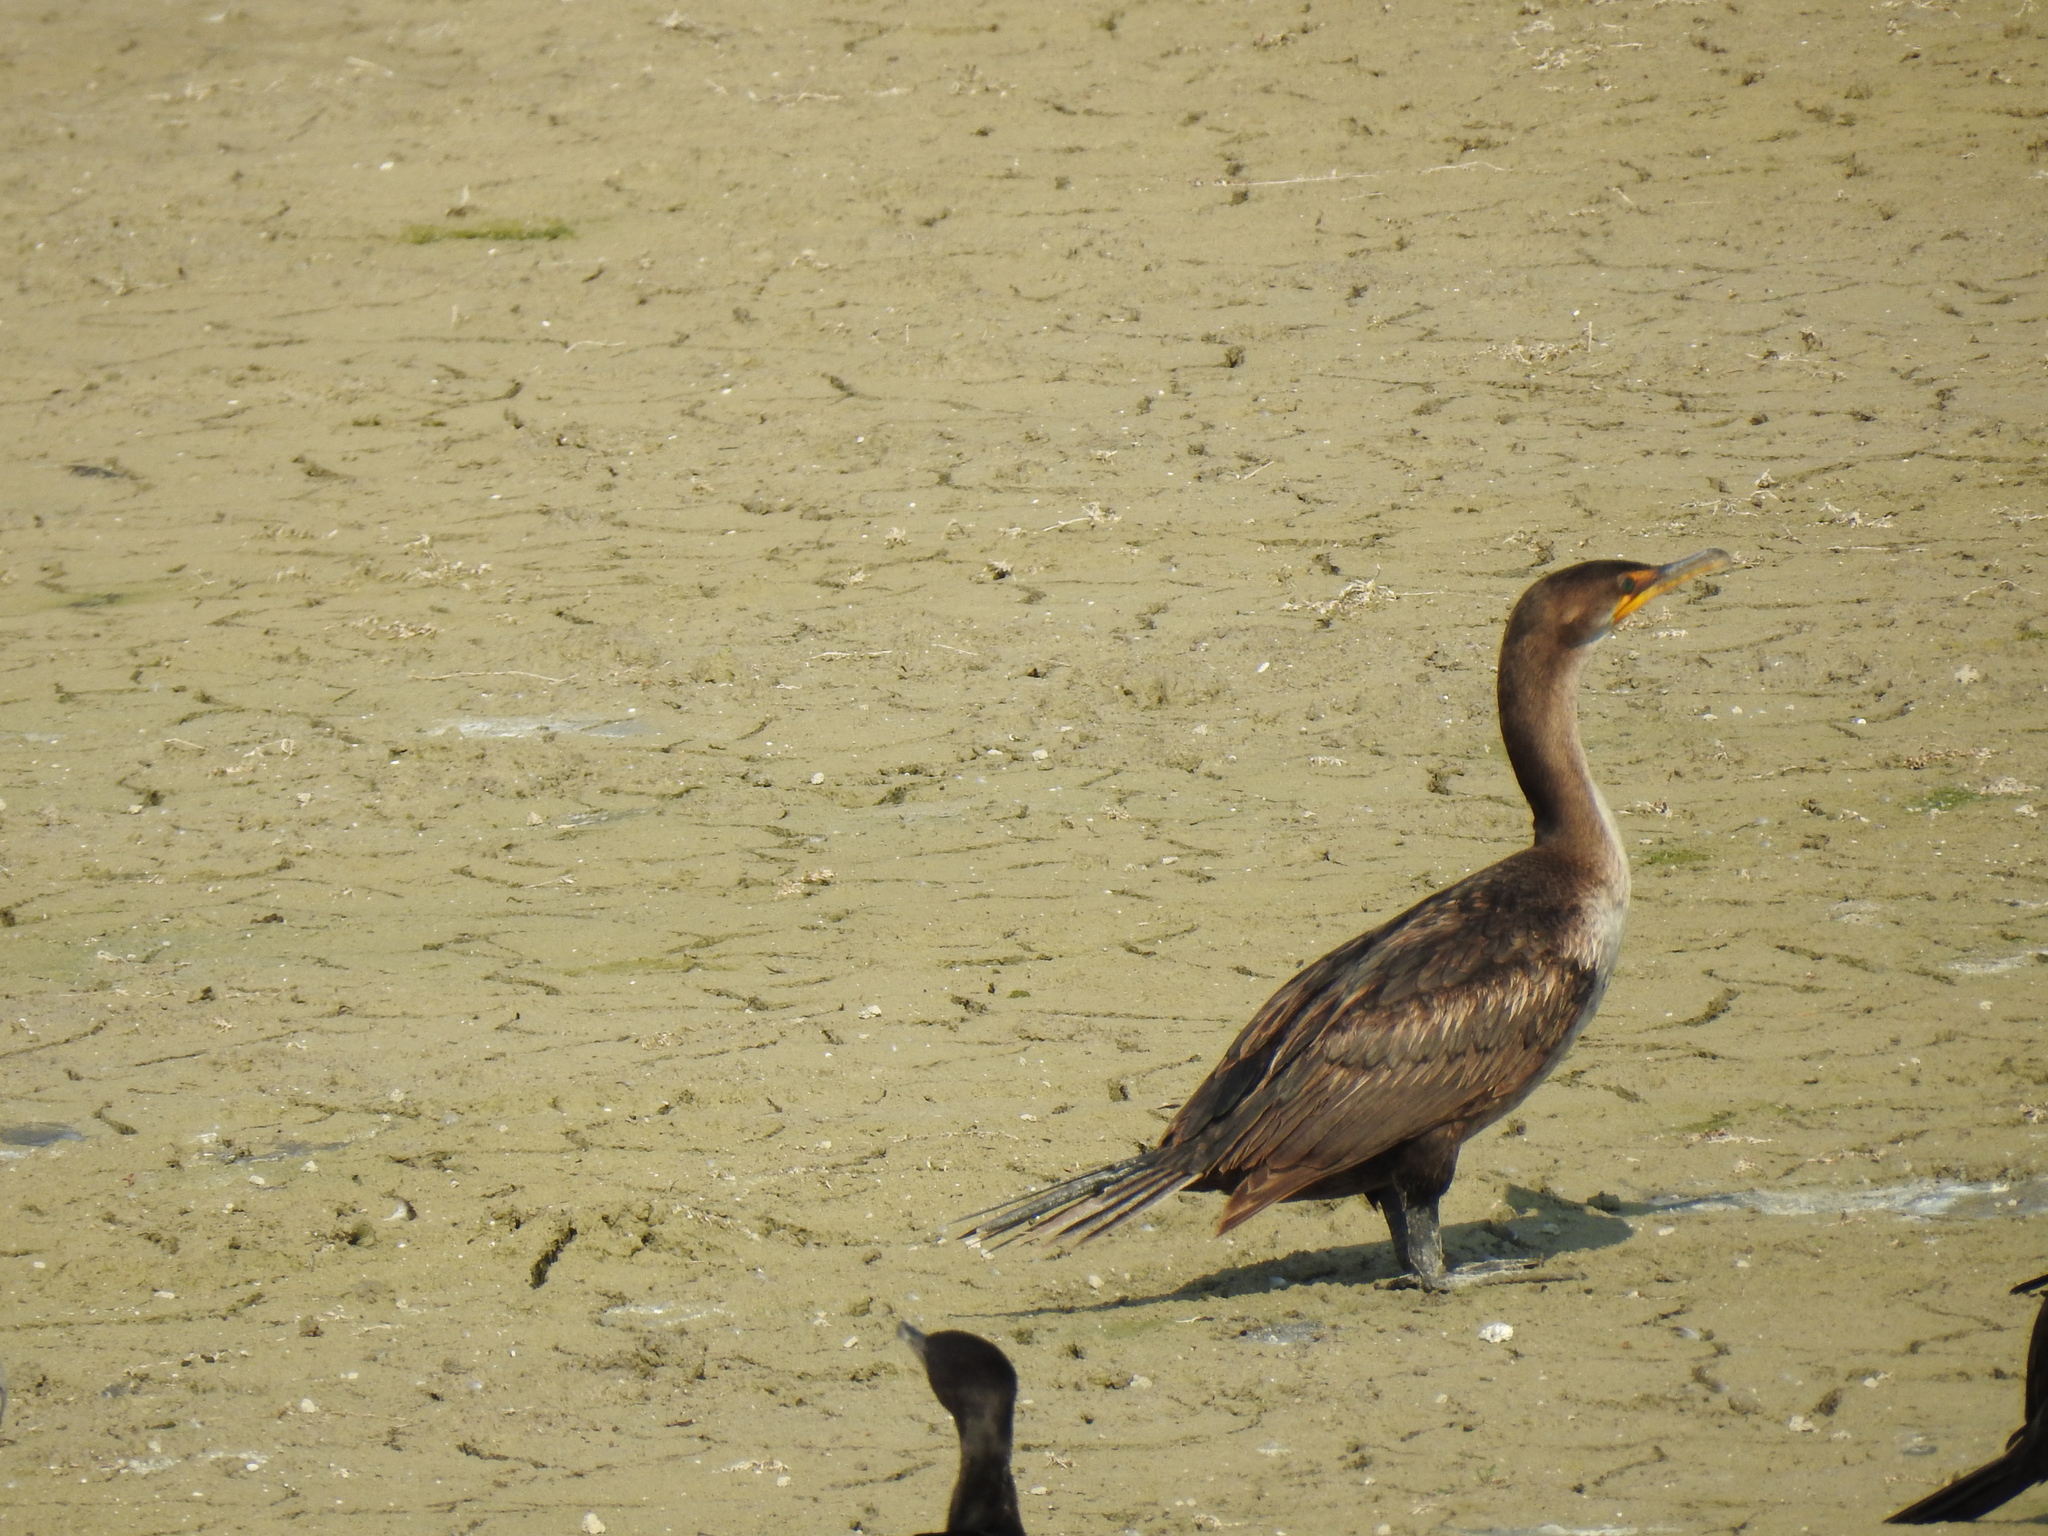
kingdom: Animalia
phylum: Chordata
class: Aves
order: Suliformes
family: Phalacrocoracidae
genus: Phalacrocorax
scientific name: Phalacrocorax auritus
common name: Double-crested cormorant
